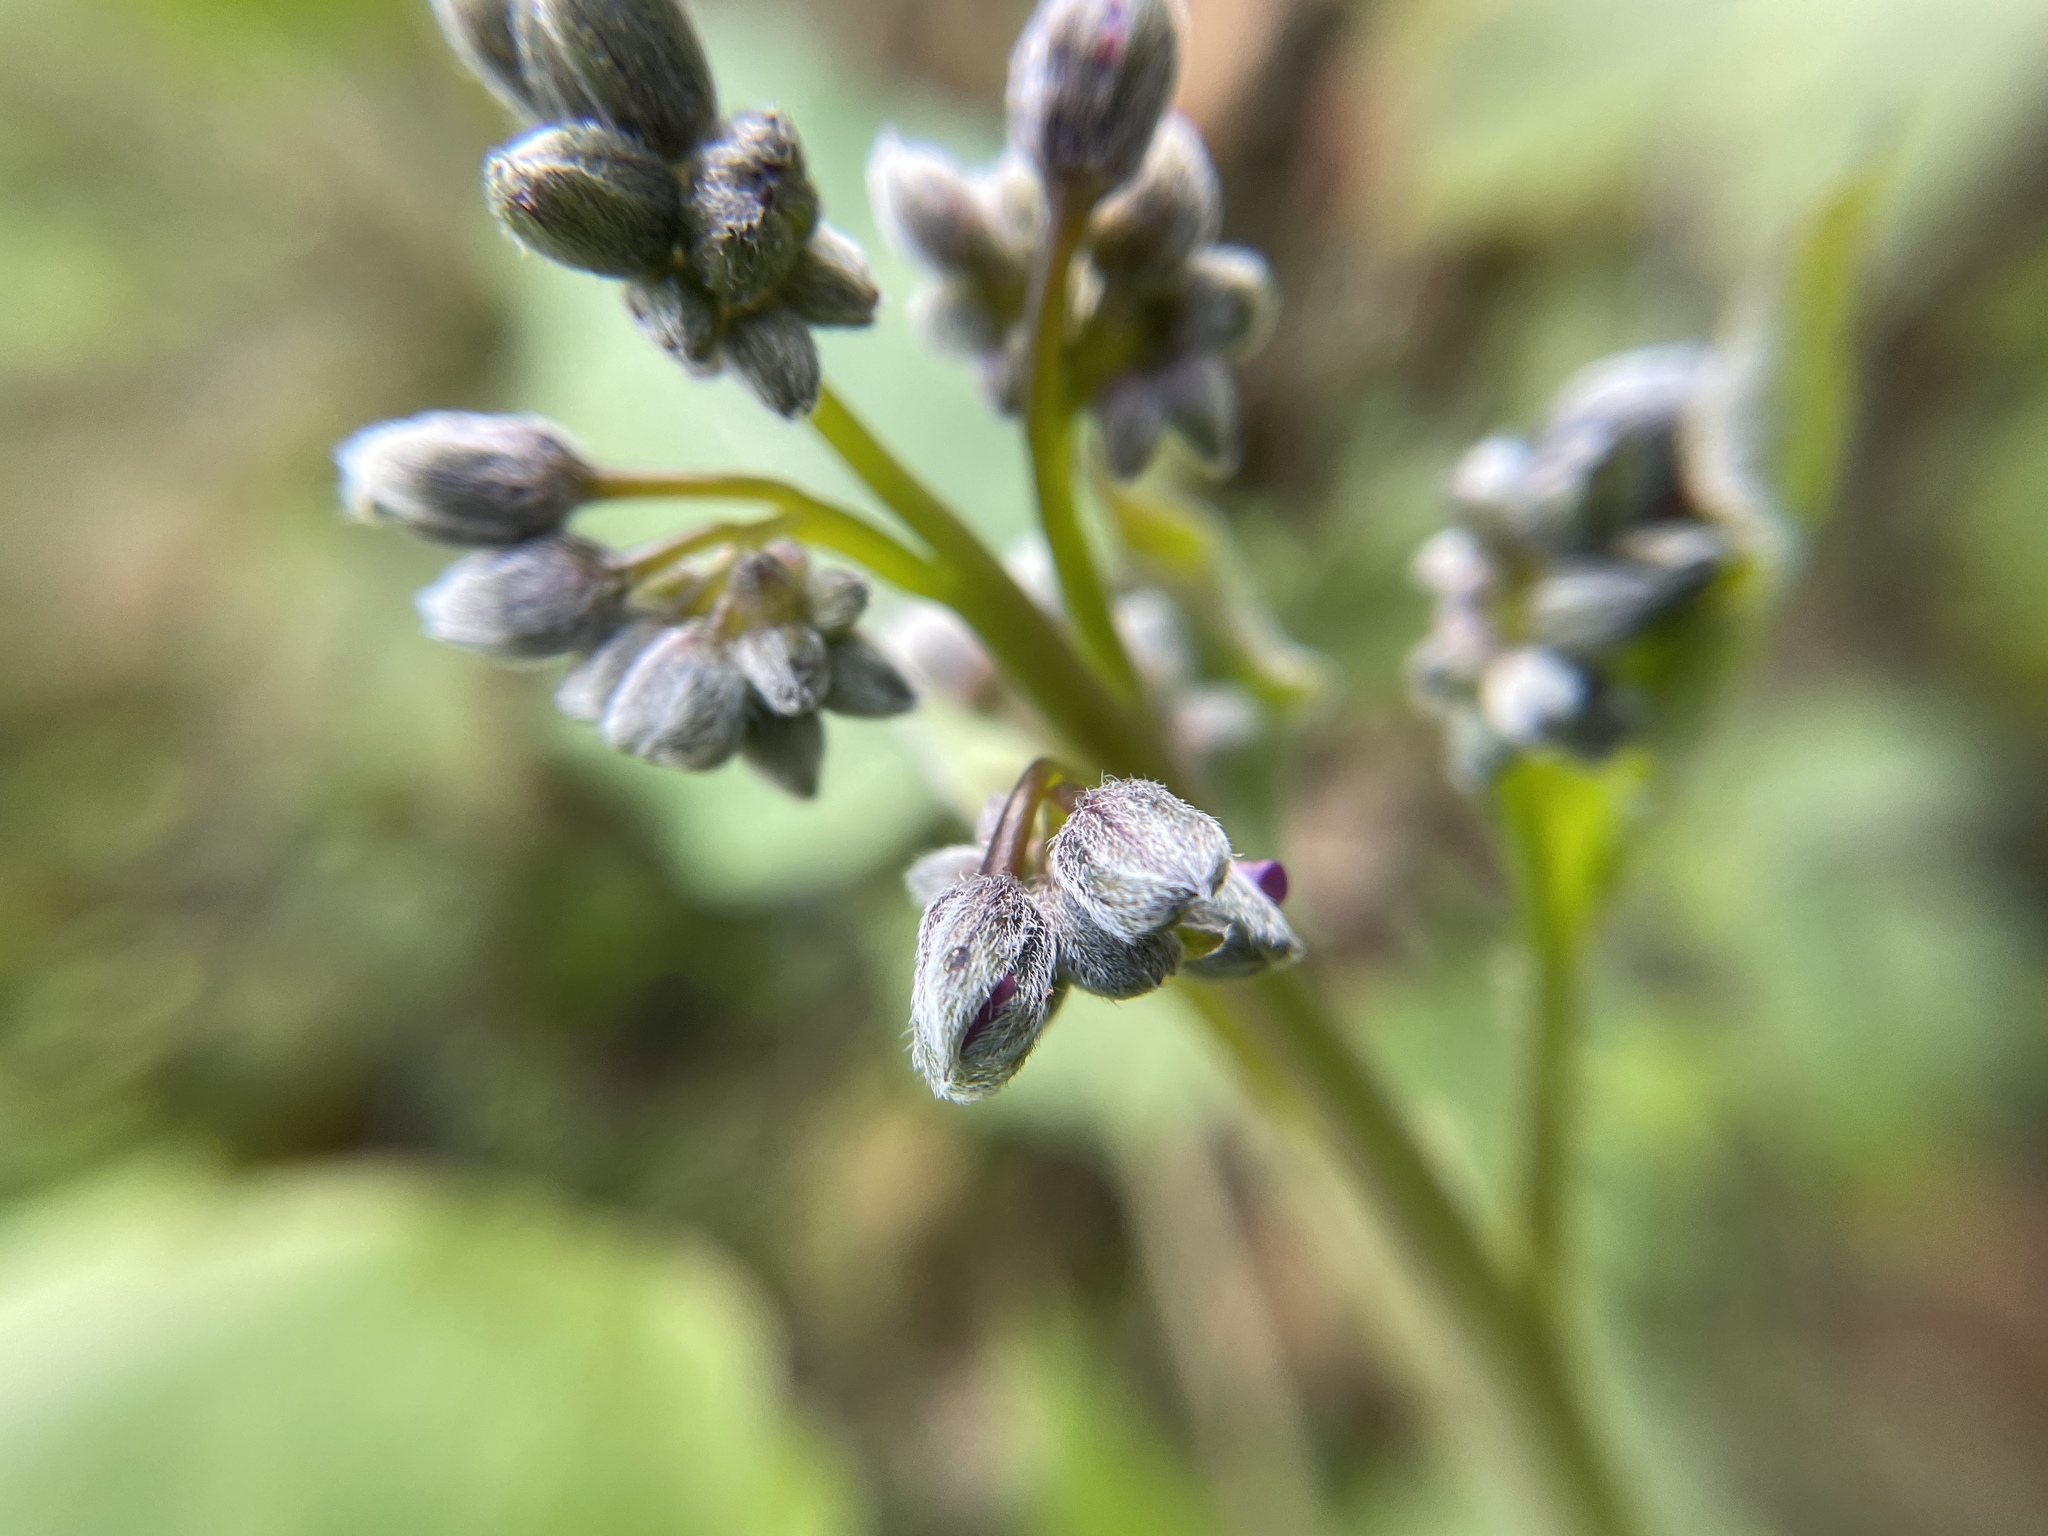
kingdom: Plantae
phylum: Tracheophyta
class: Magnoliopsida
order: Boraginales
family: Boraginaceae
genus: Adelinia
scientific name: Adelinia grande
